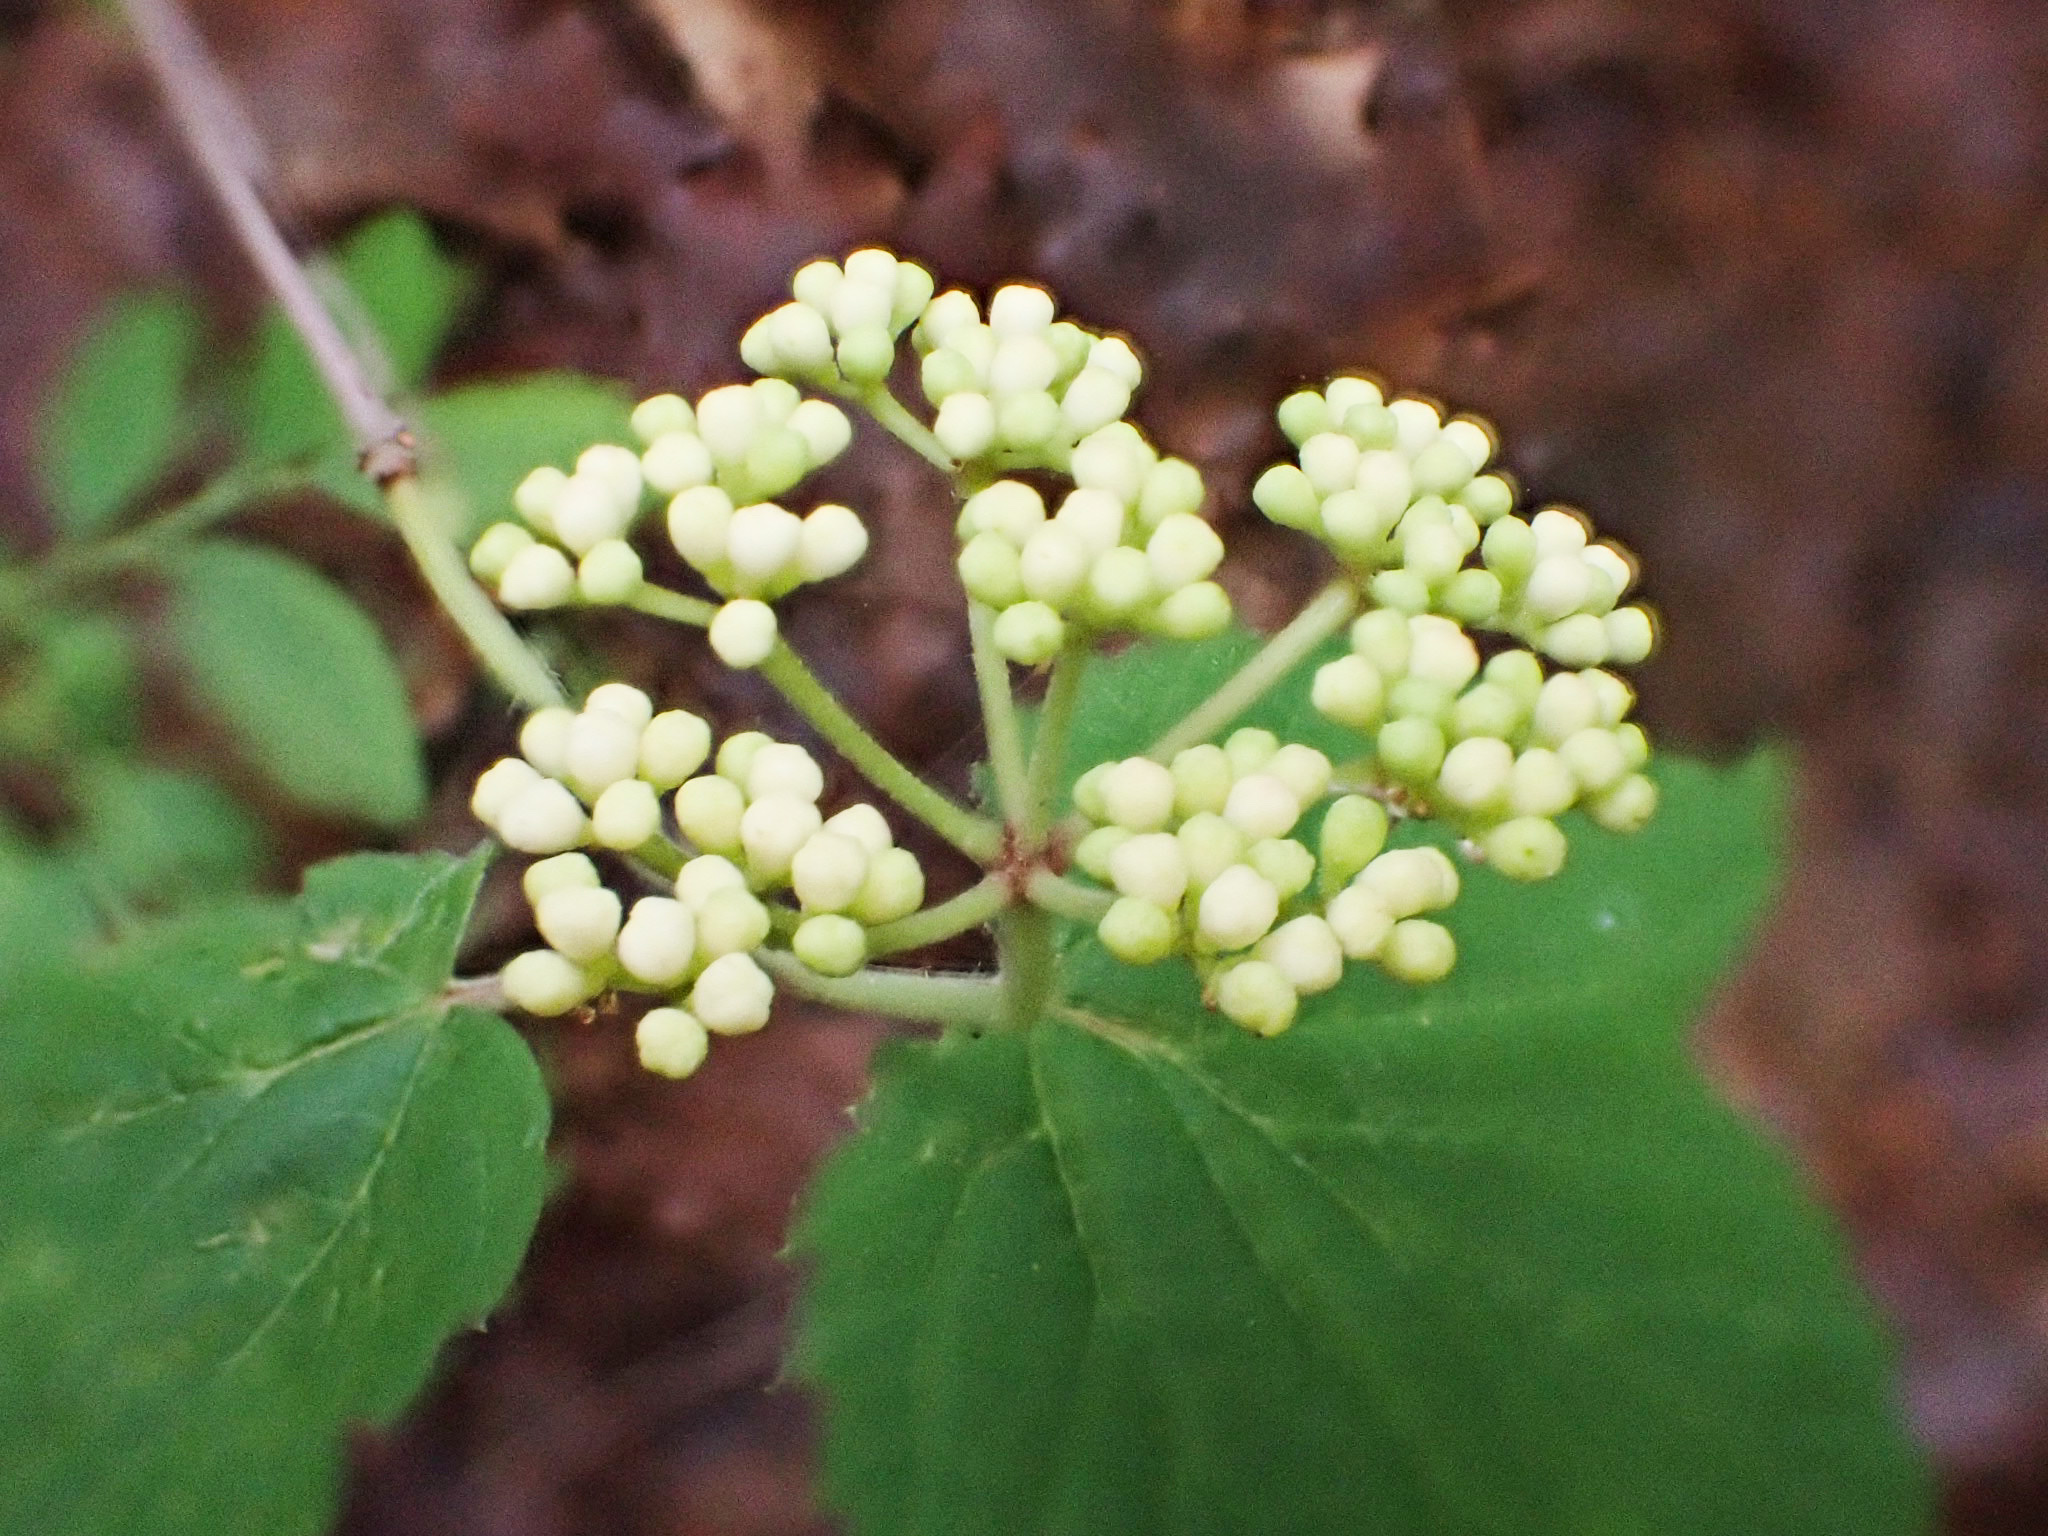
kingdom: Plantae
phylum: Tracheophyta
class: Magnoliopsida
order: Dipsacales
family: Viburnaceae
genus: Viburnum
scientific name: Viburnum acerifolium
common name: Dockmackie
